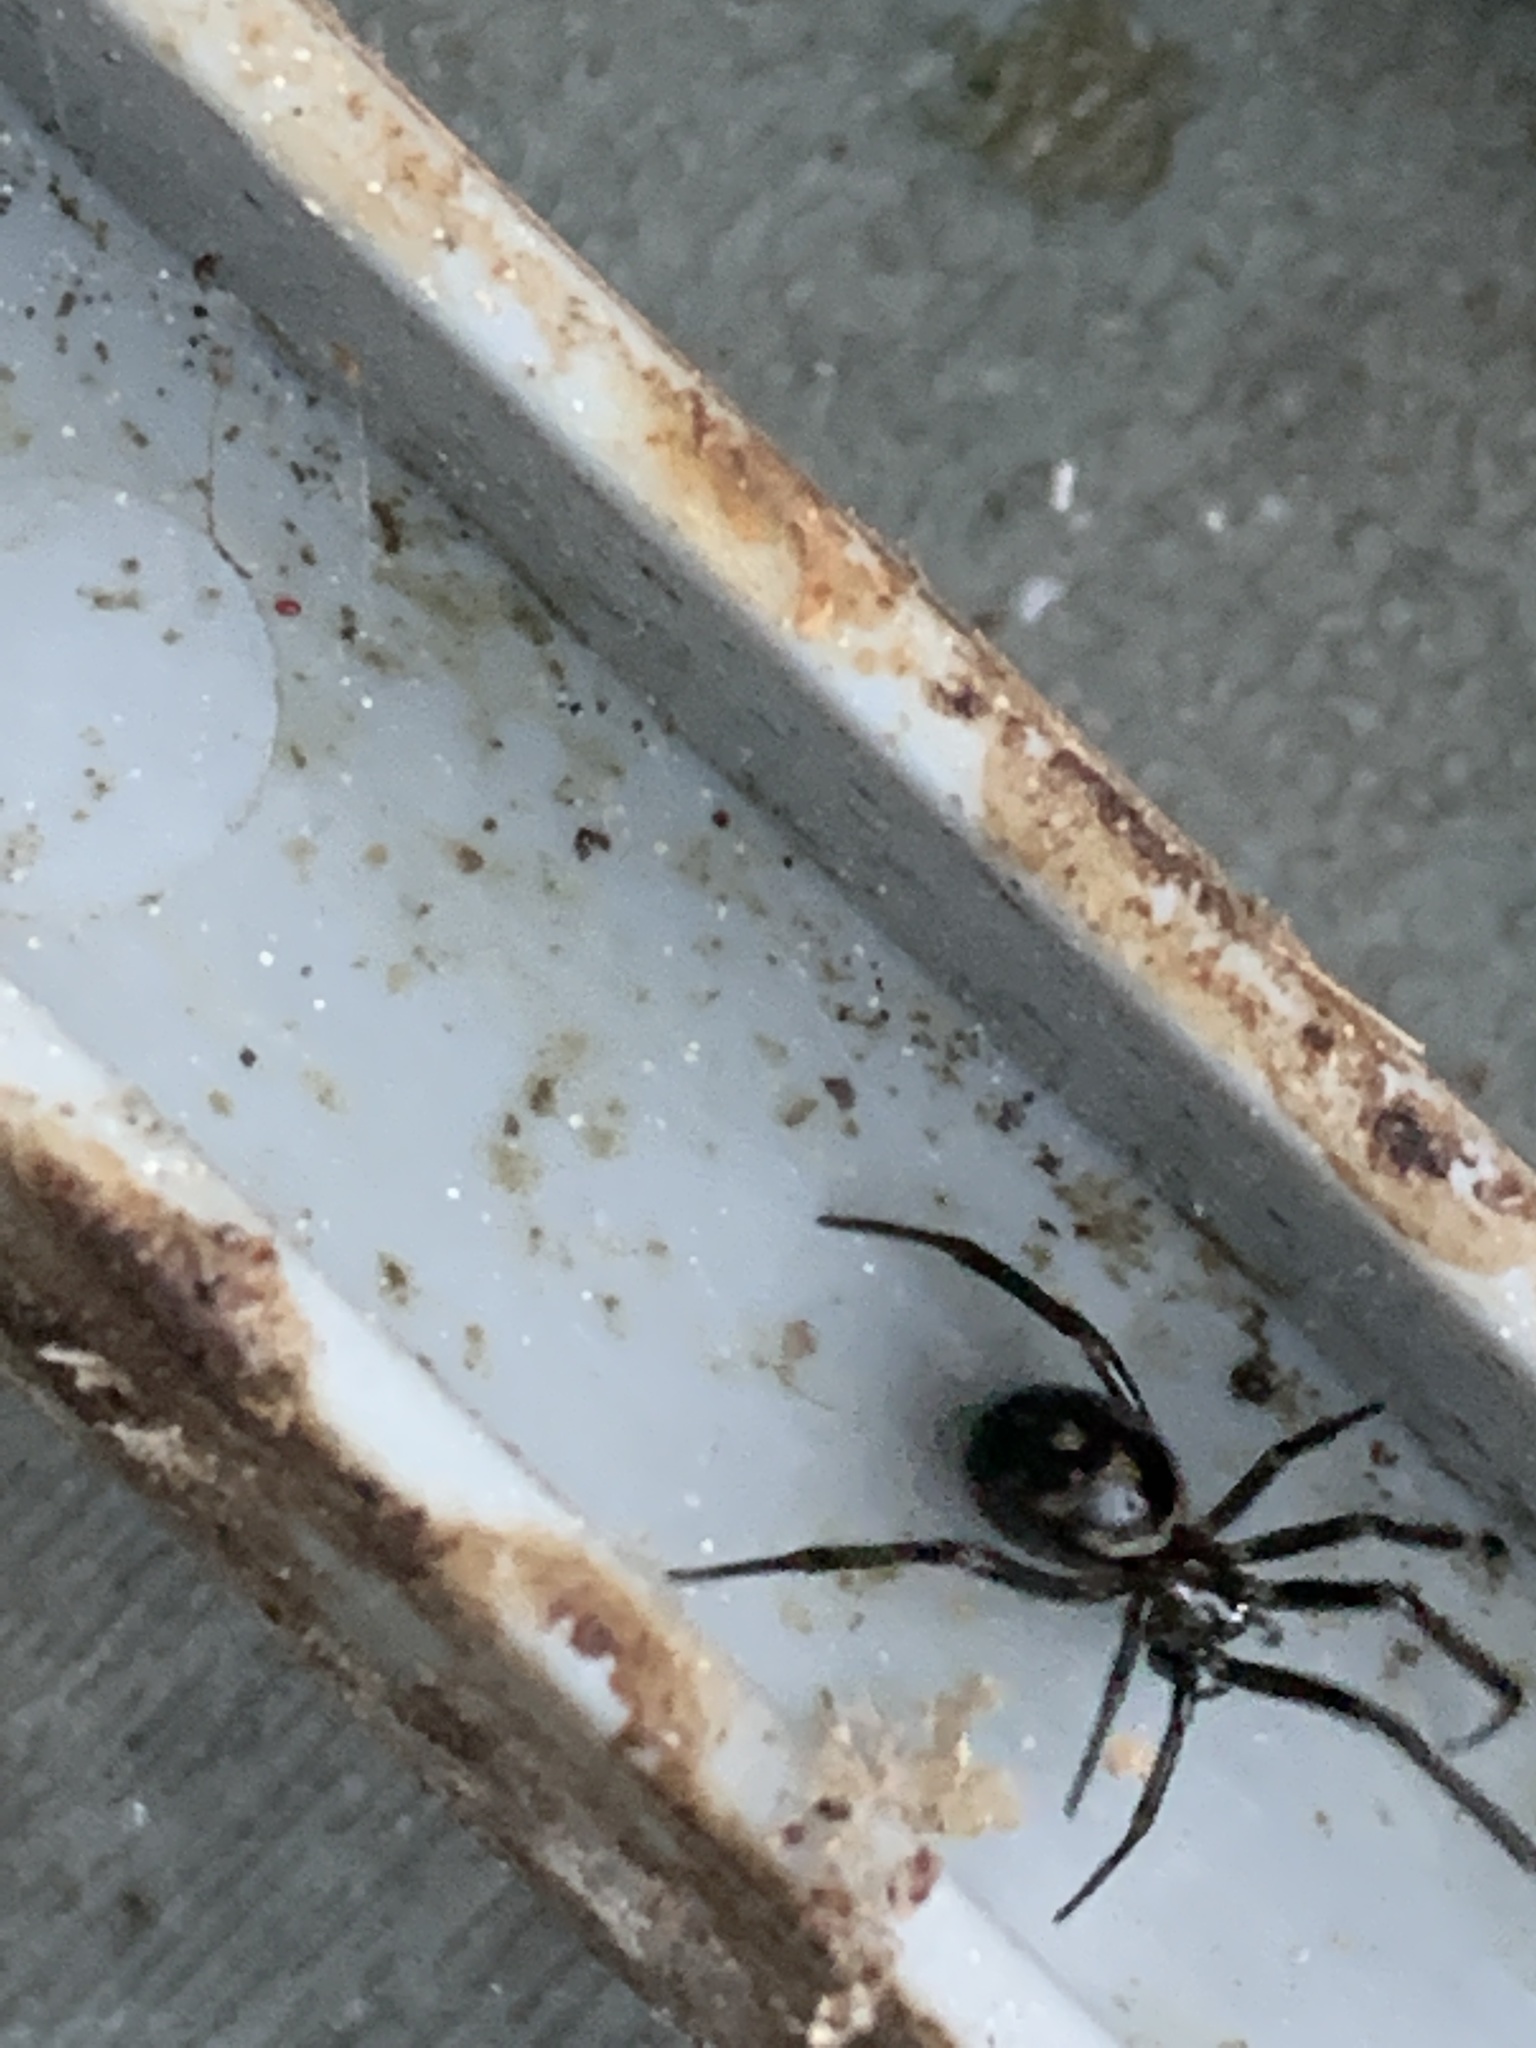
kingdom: Animalia
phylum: Arthropoda
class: Arachnida
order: Araneae
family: Theridiidae
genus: Steatoda
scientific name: Steatoda grossa
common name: False black widow
